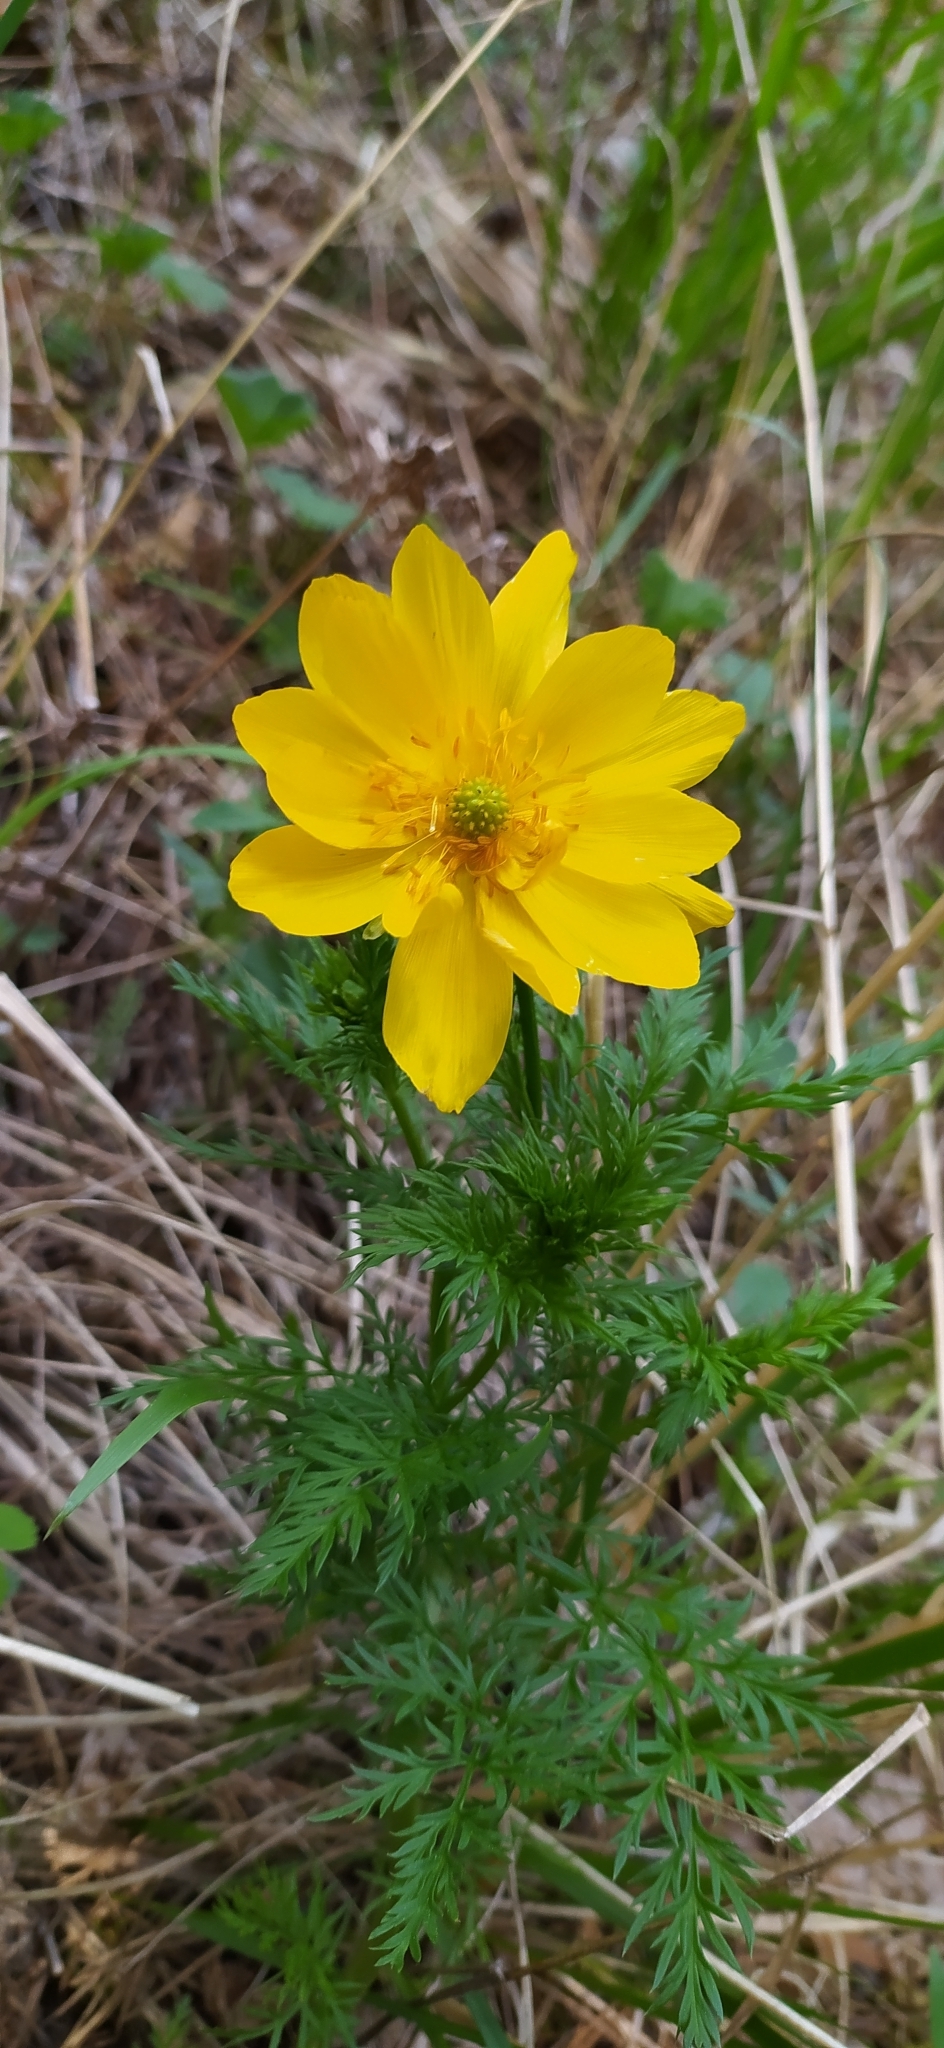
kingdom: Plantae
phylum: Tracheophyta
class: Magnoliopsida
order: Ranunculales
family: Ranunculaceae
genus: Adonis
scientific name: Adonis
